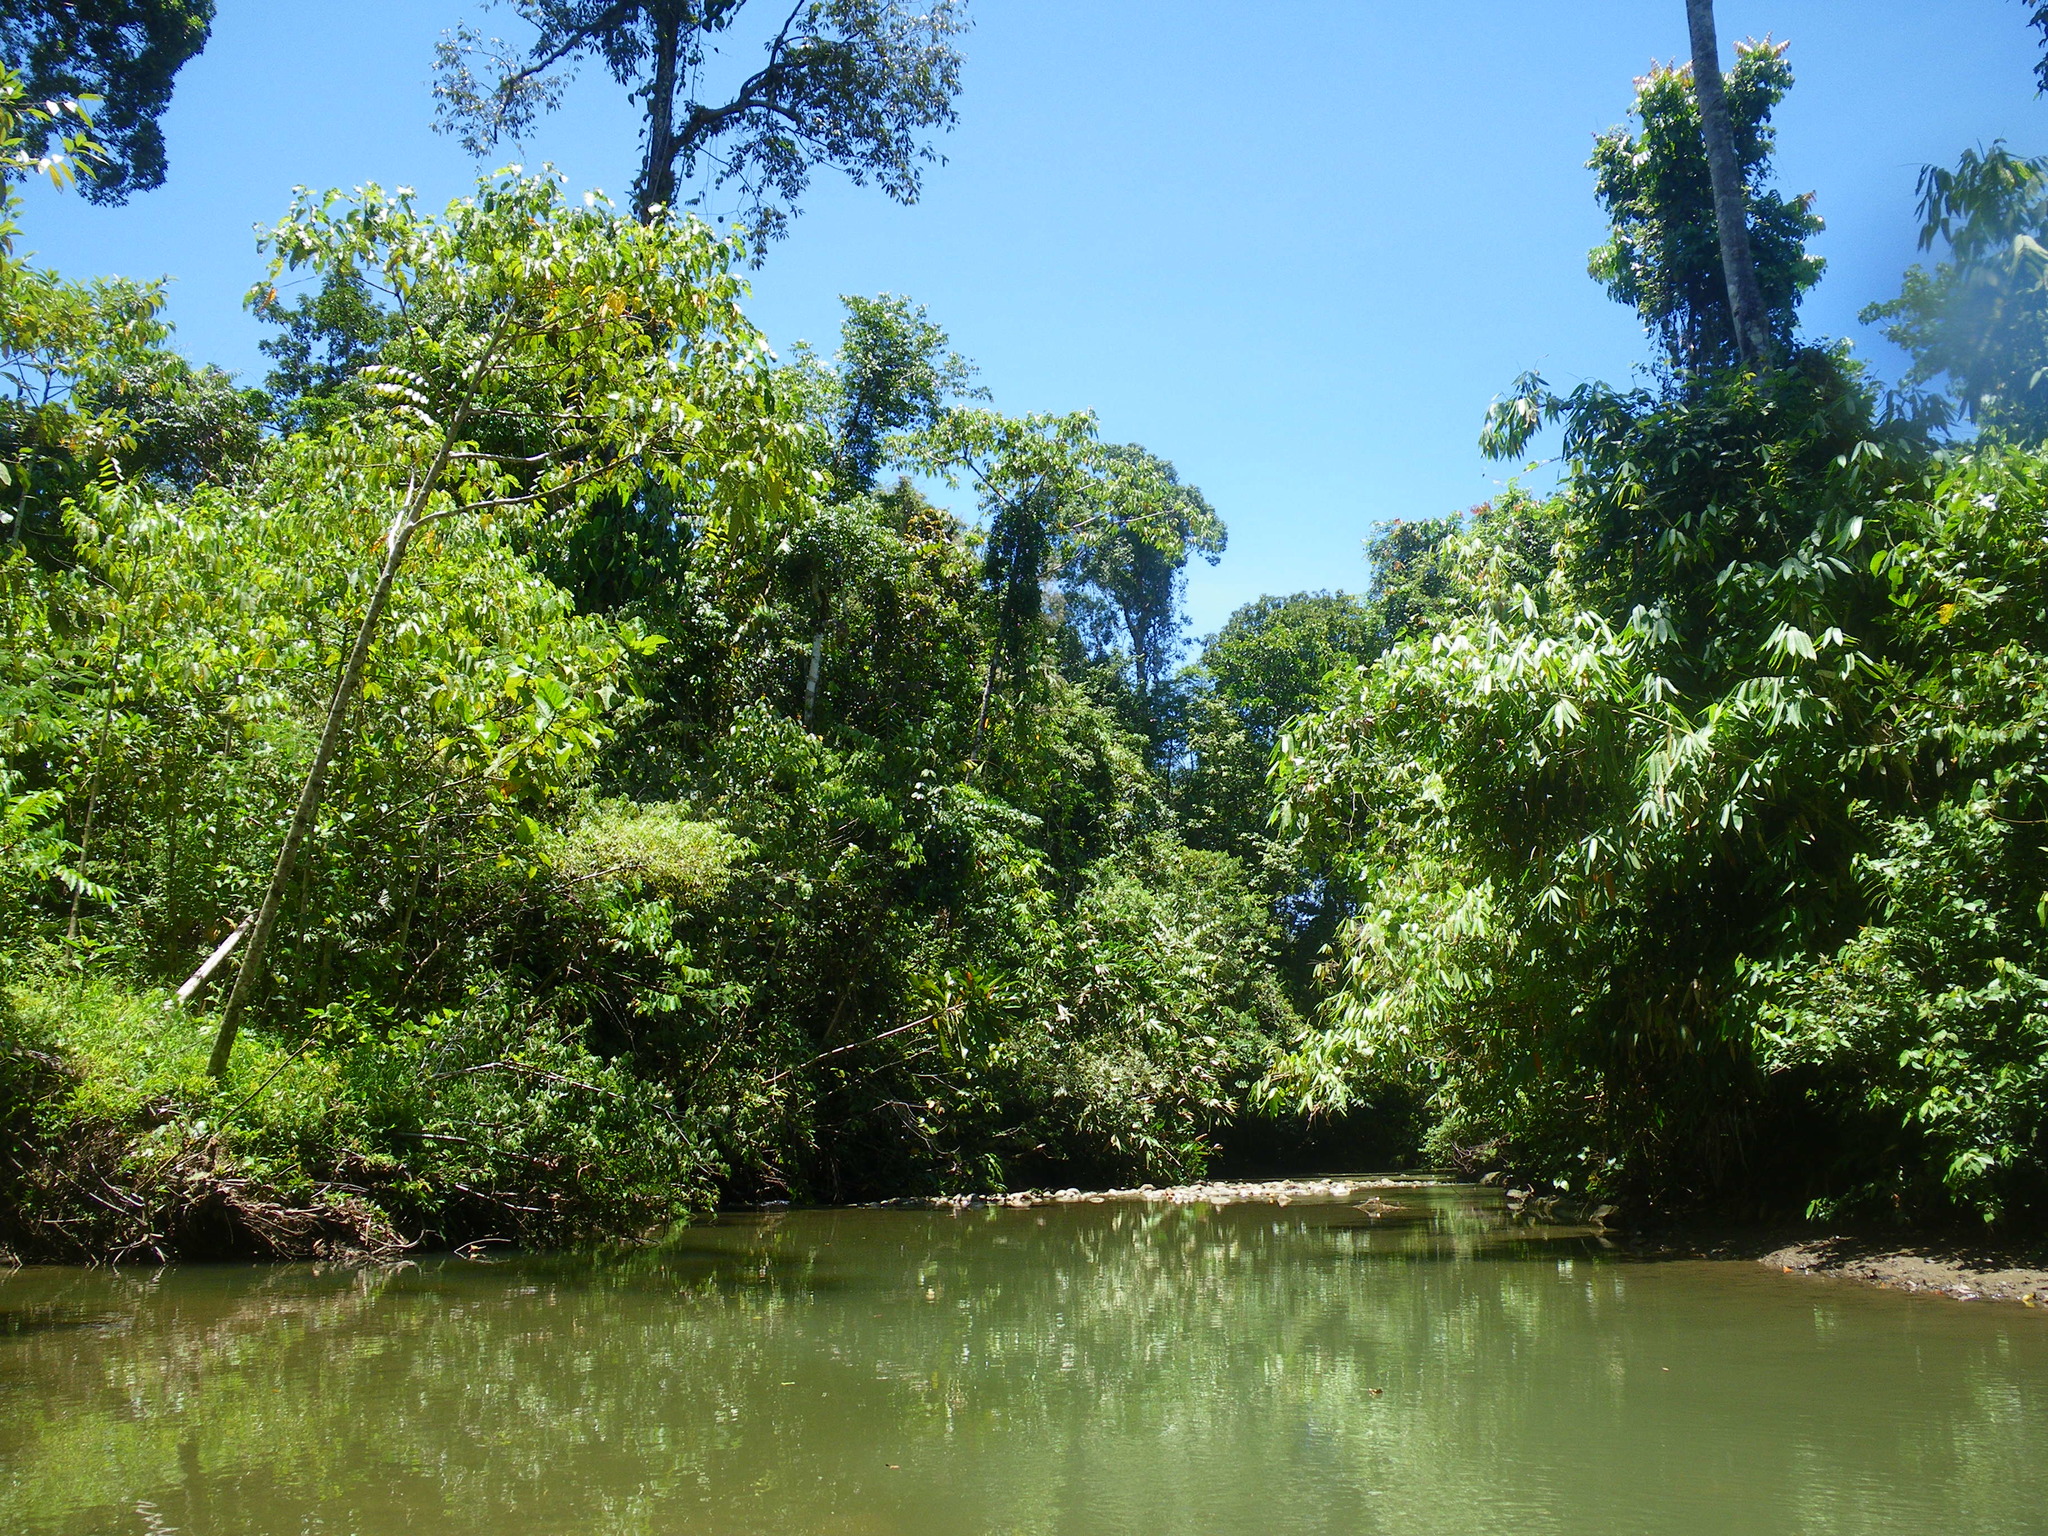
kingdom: Animalia
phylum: Chordata
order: Atheriniformes
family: Melanotaeniidae
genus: Melanotaenia
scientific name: Melanotaenia rubrostriata
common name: Red-striped rainbowfish
